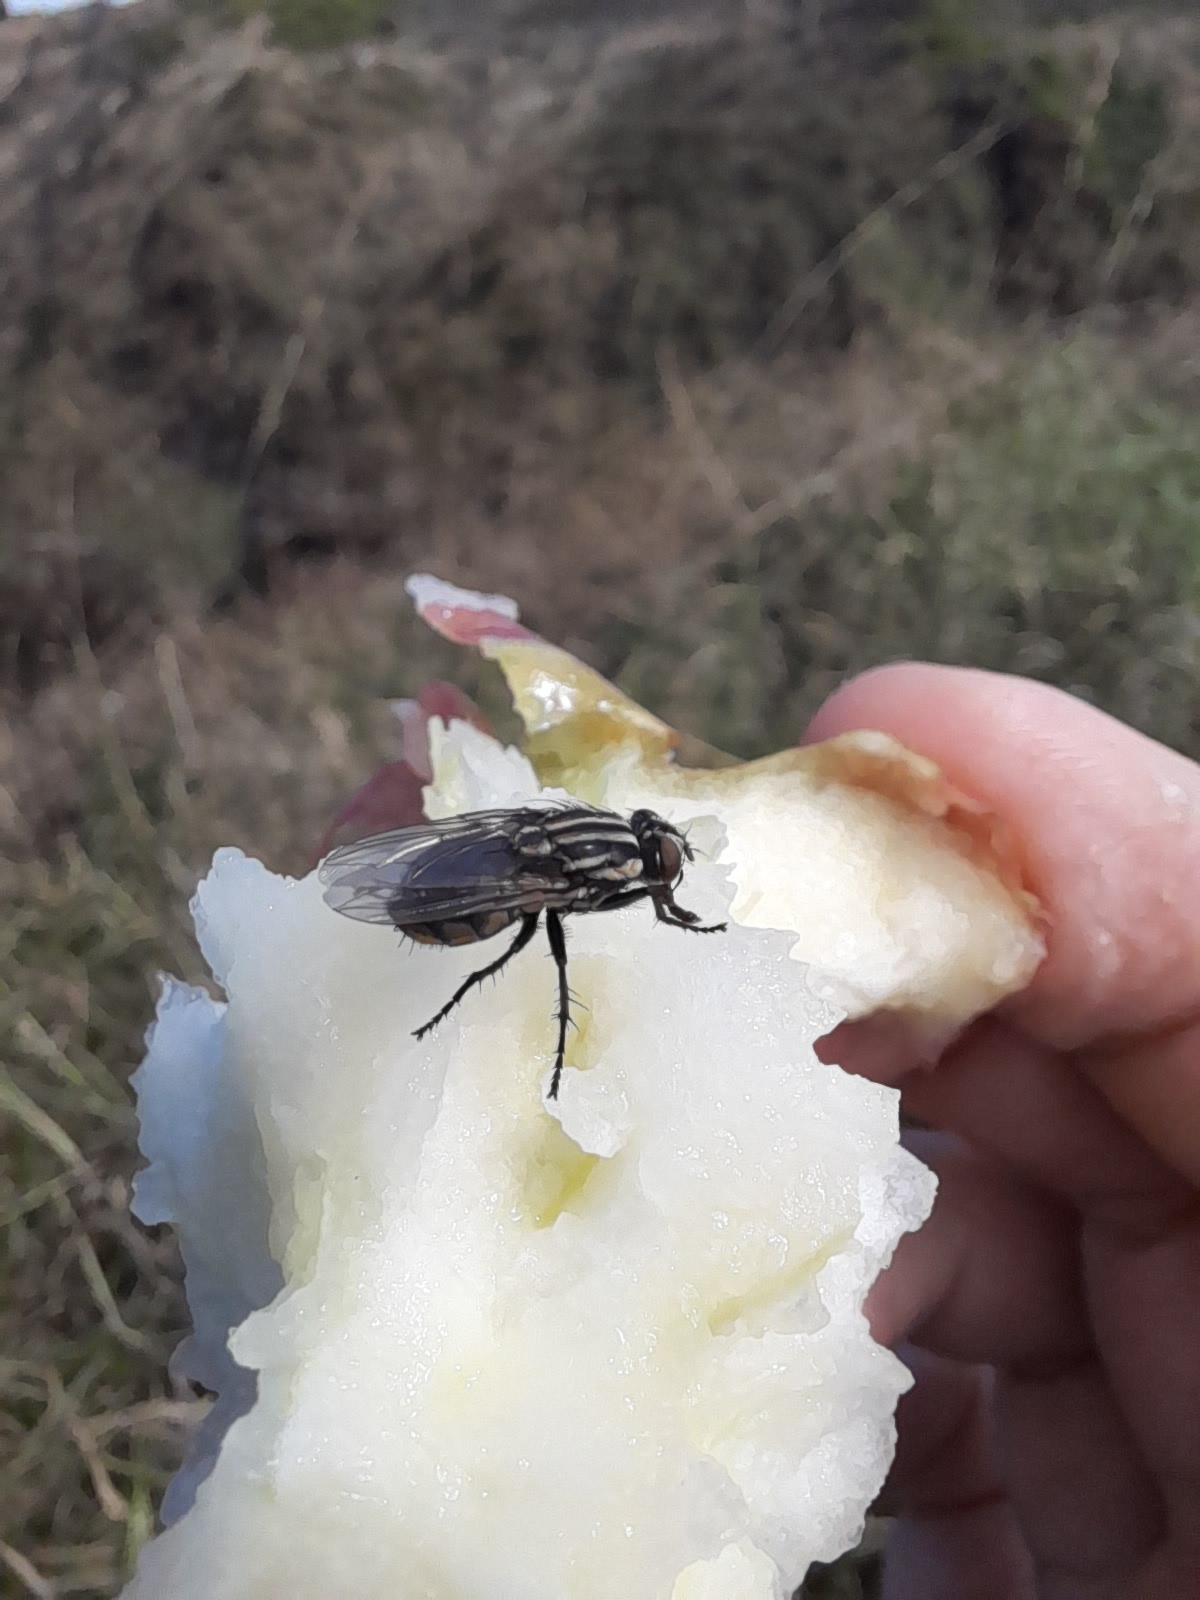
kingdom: Animalia
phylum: Arthropoda
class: Insecta
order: Diptera
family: Sarcophagidae
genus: Oxysarcodexia
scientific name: Oxysarcodexia varia
